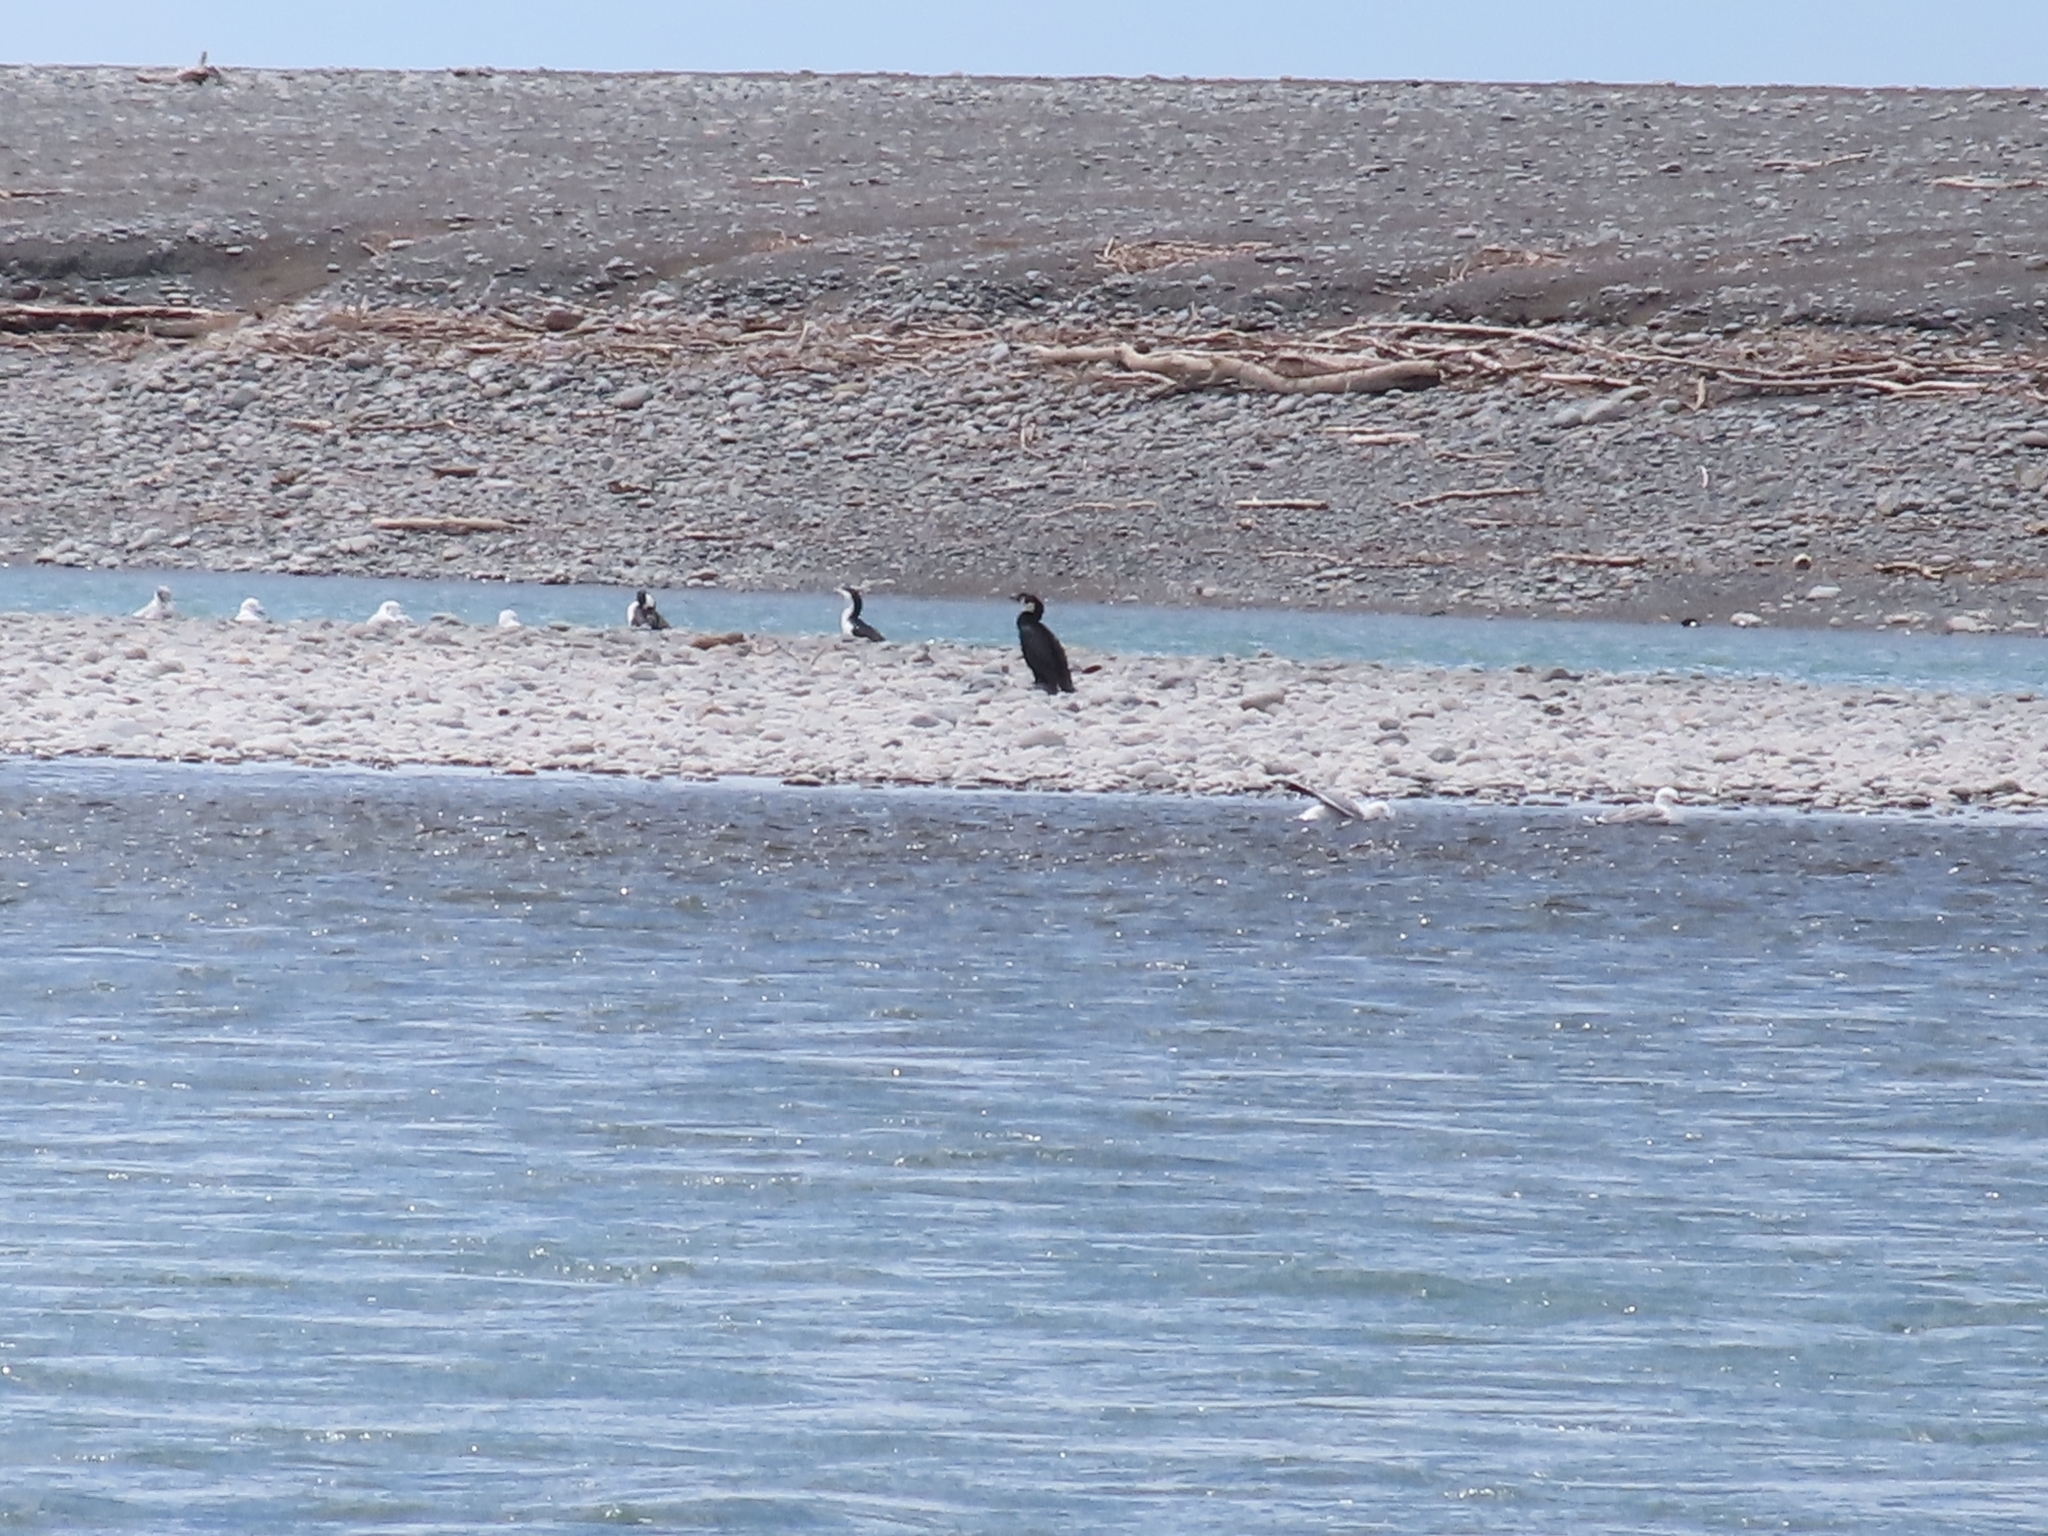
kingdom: Animalia
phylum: Chordata
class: Aves
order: Suliformes
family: Phalacrocoracidae
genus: Microcarbo
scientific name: Microcarbo melanoleucos
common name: Little pied cormorant
